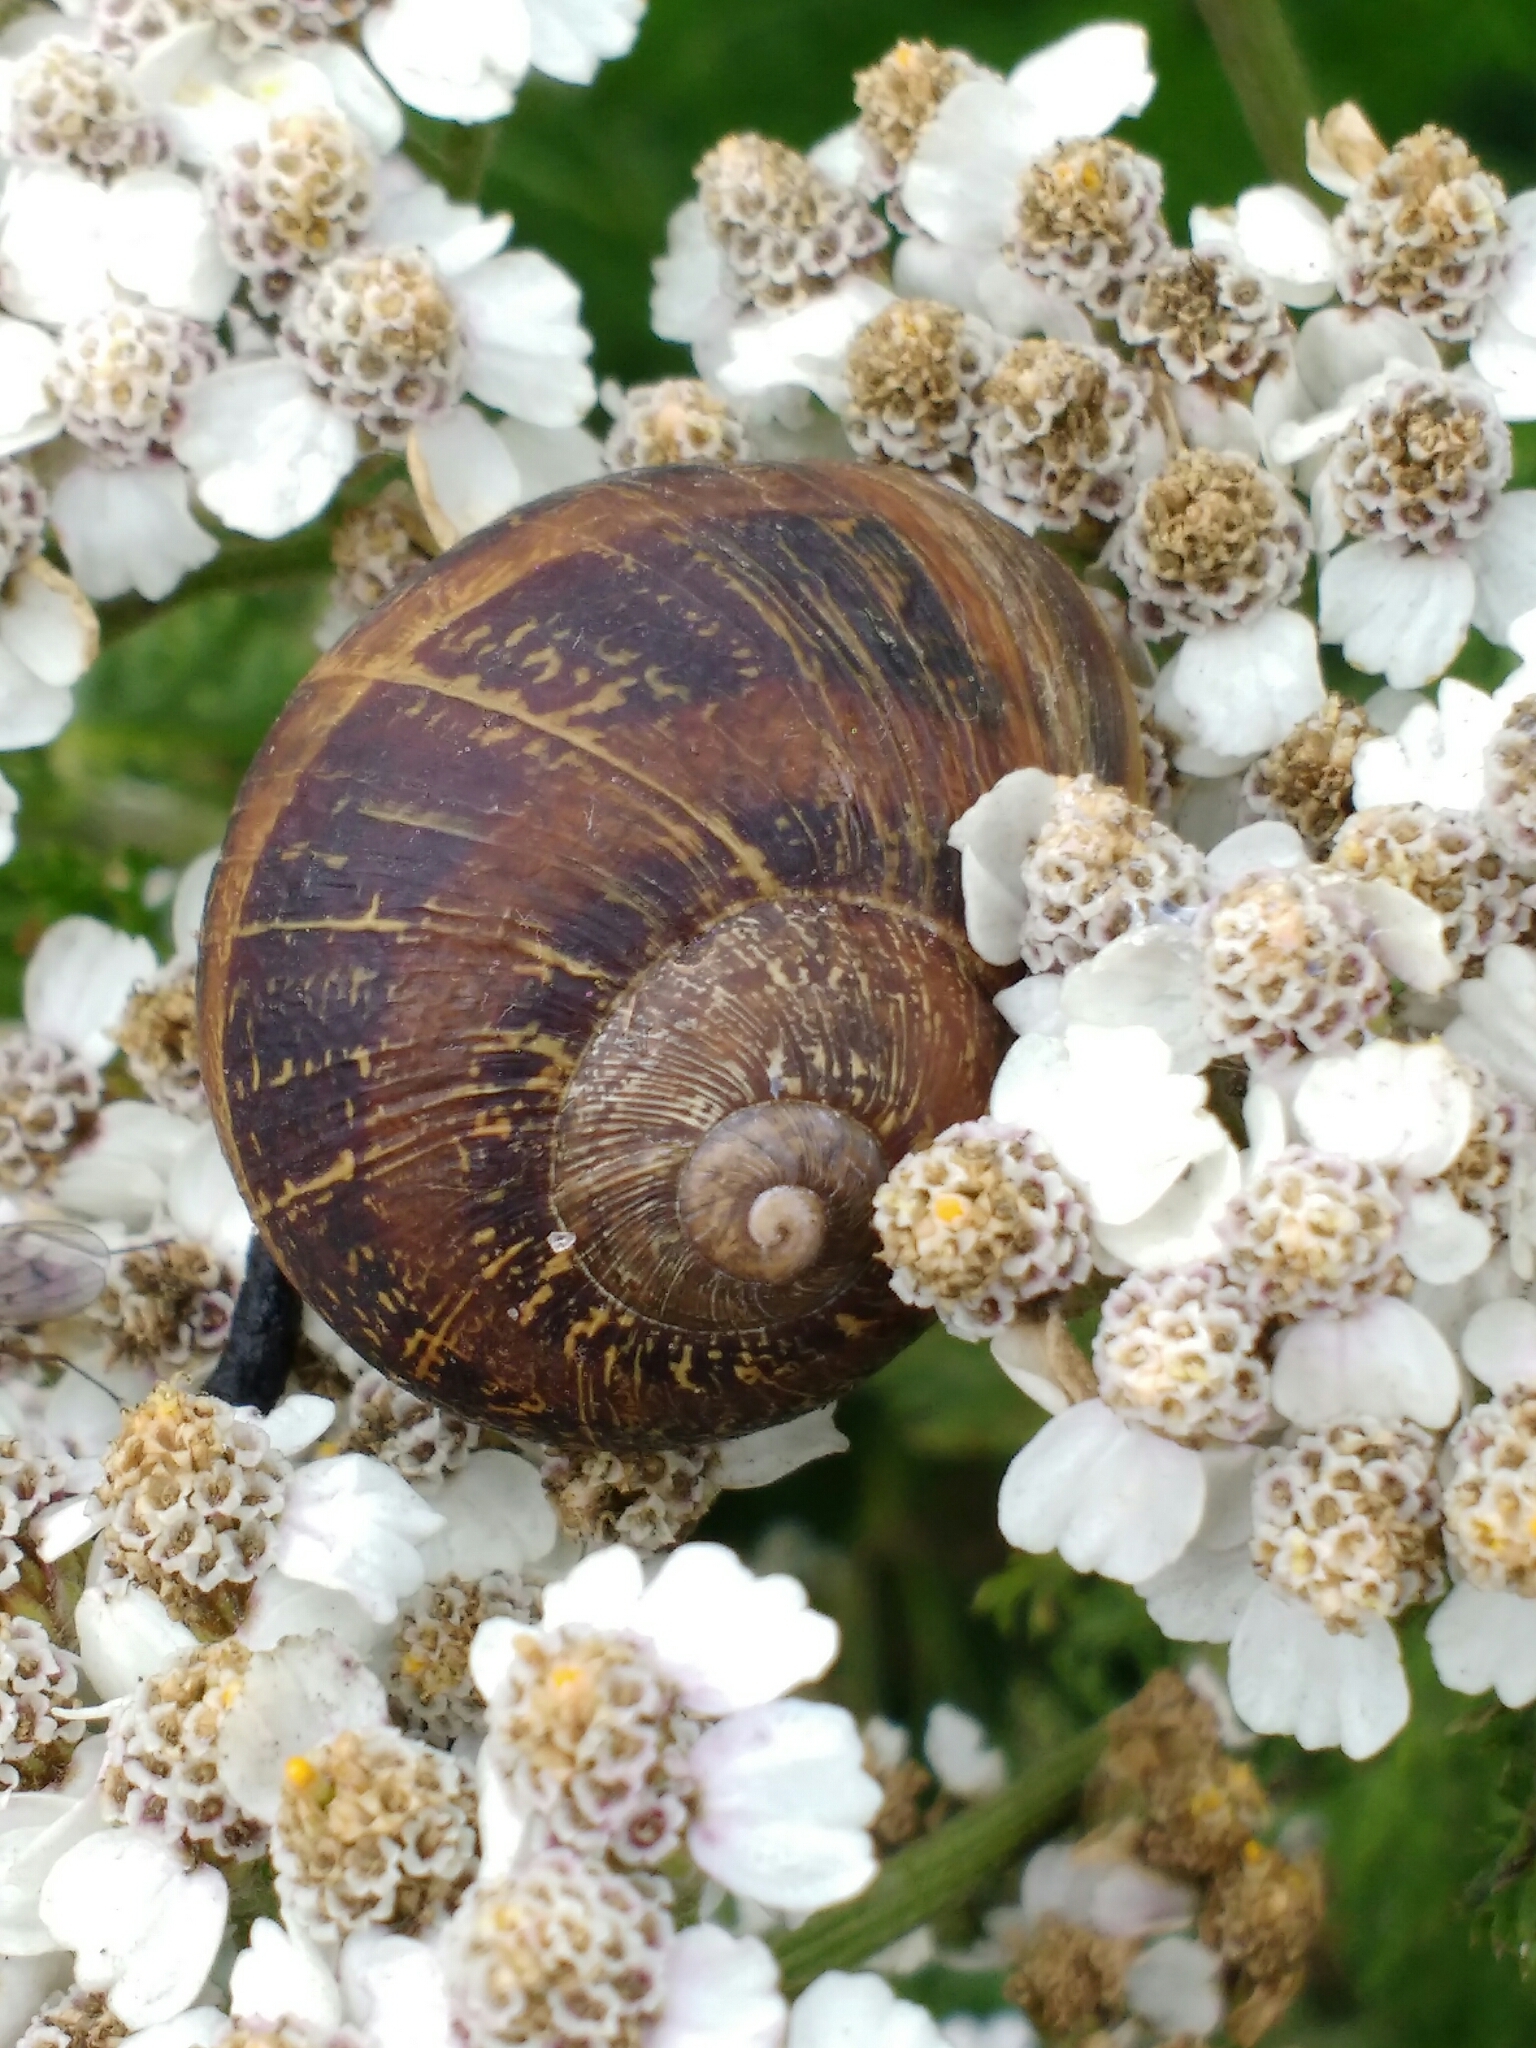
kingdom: Animalia
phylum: Mollusca
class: Gastropoda
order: Stylommatophora
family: Helicidae
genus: Cornu
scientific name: Cornu aspersum
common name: Brown garden snail
